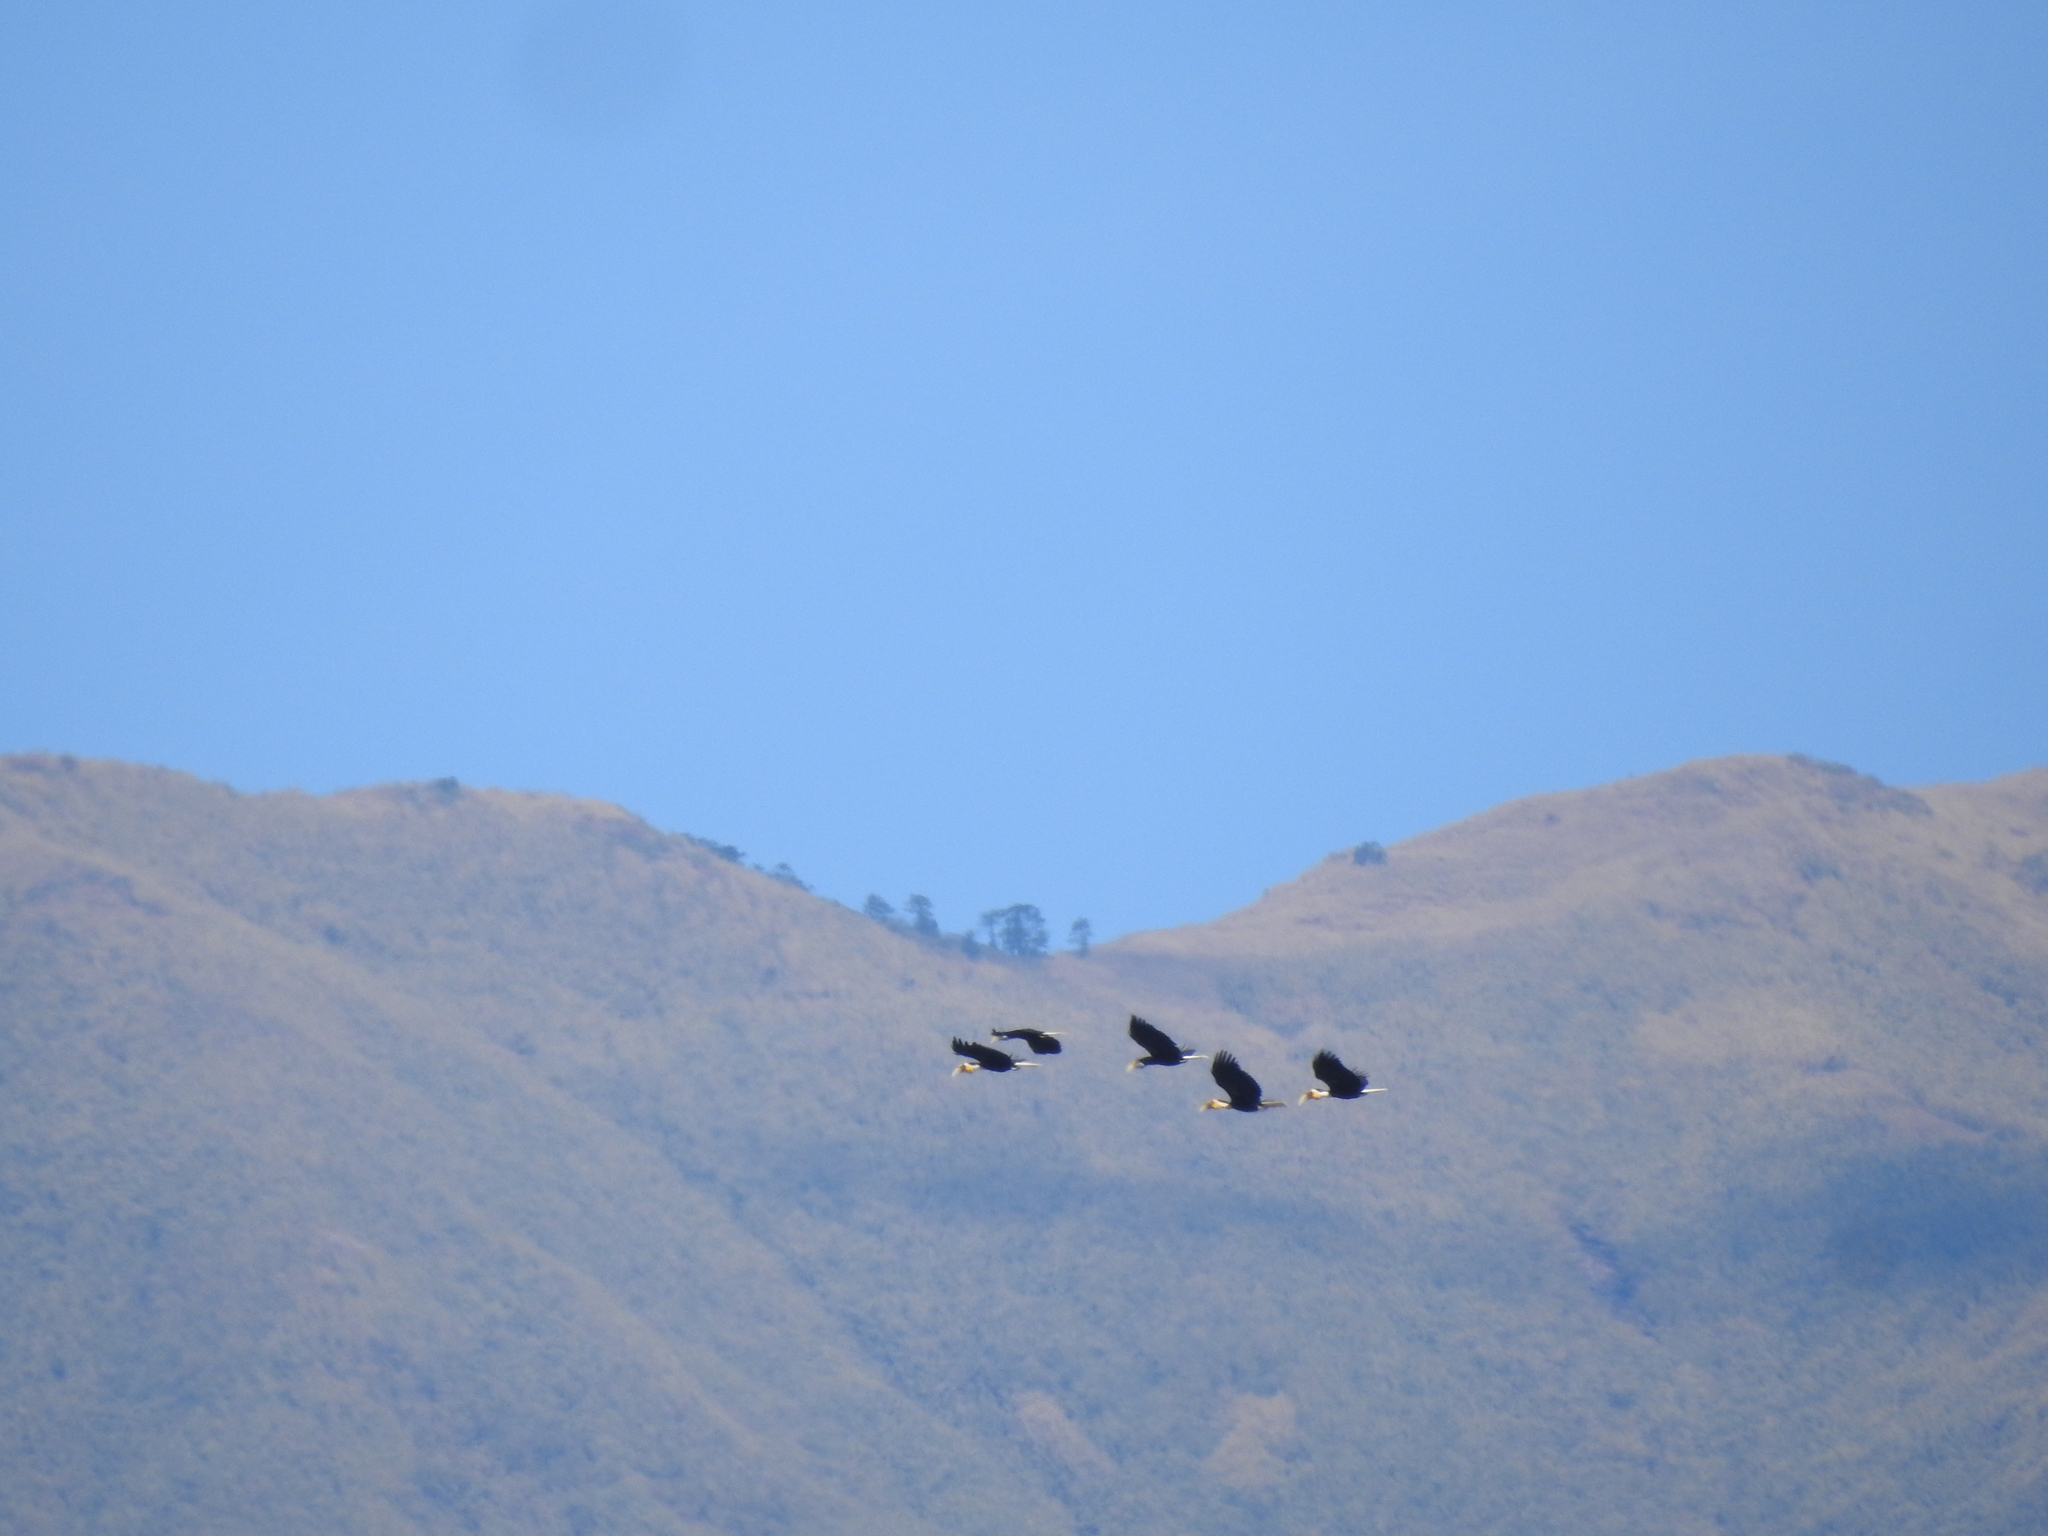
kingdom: Animalia
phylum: Chordata
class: Aves
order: Bucerotiformes
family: Bucerotidae
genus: Rhyticeros
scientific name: Rhyticeros undulatus
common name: Wreathed hornbill
